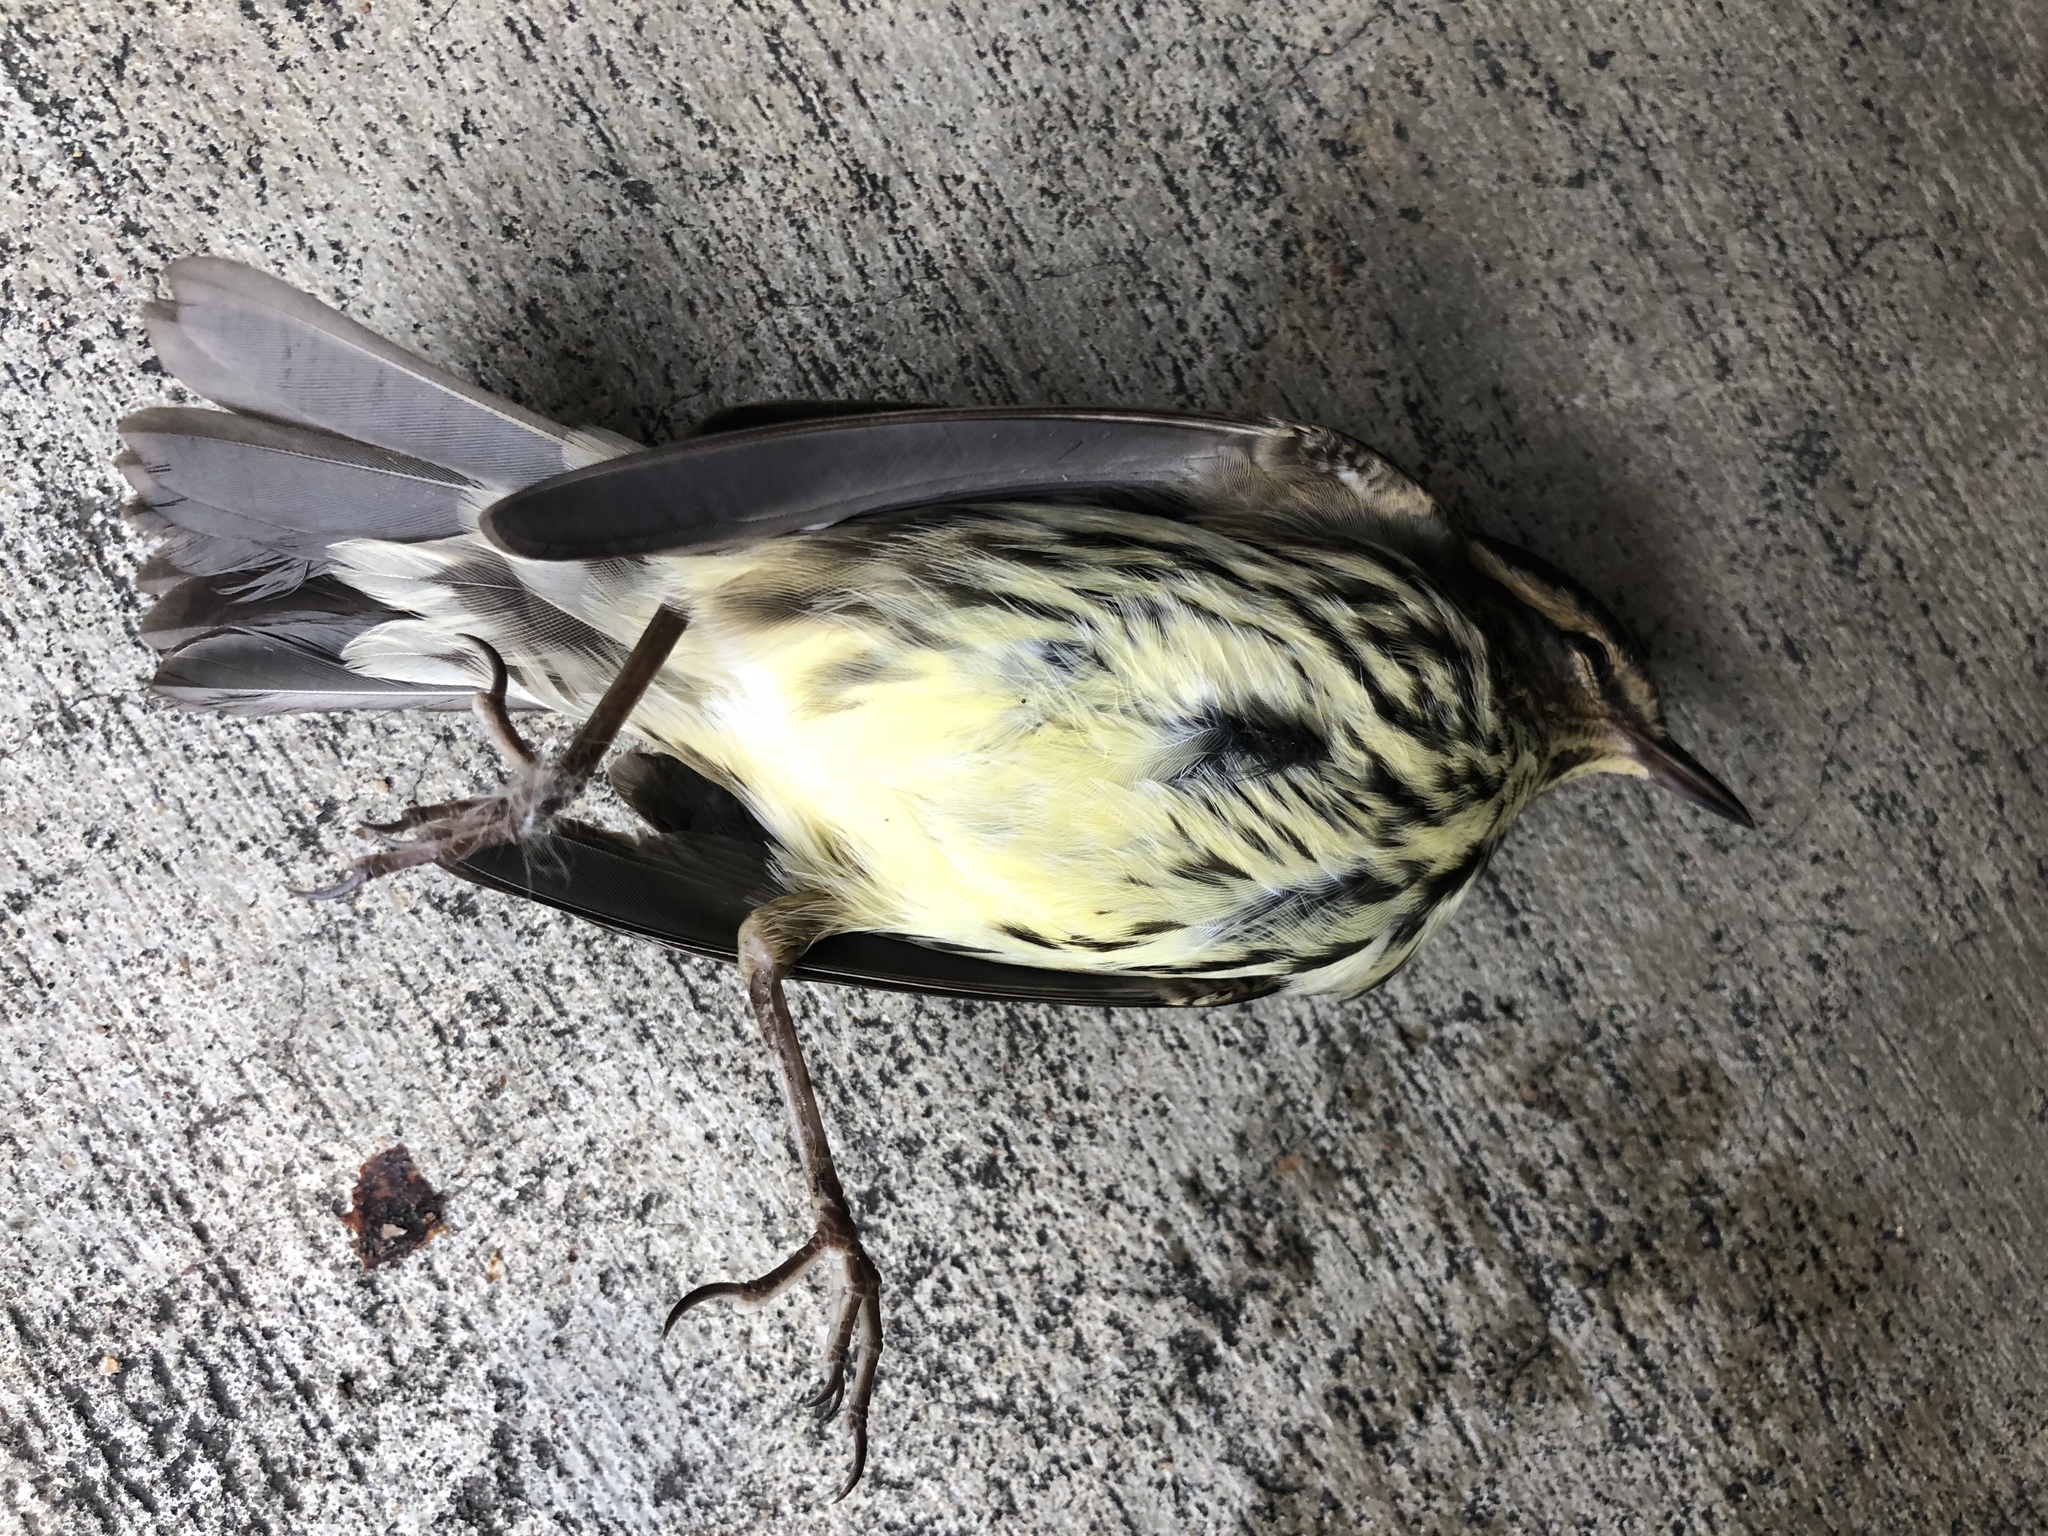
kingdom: Animalia
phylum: Chordata
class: Aves
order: Passeriformes
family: Parulidae
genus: Parkesia
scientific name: Parkesia noveboracensis
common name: Northern waterthrush
